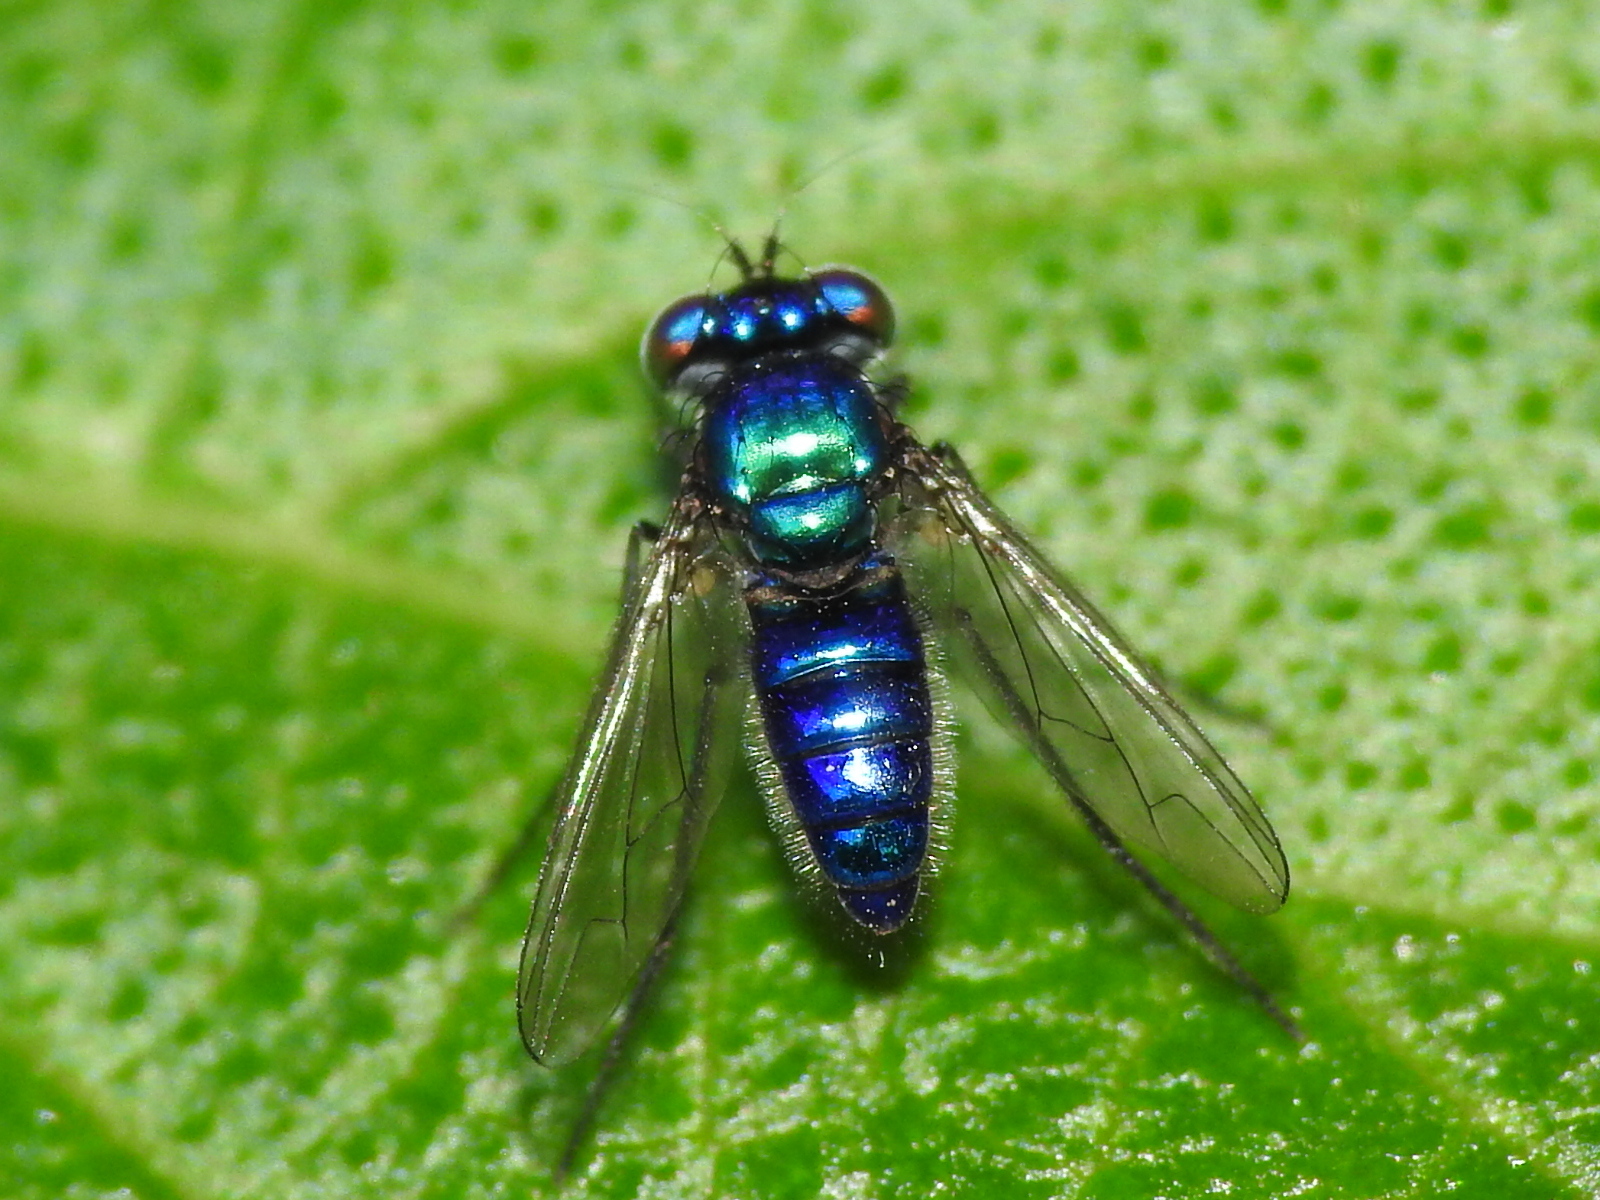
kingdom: Animalia
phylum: Arthropoda
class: Insecta
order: Diptera
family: Dolichopodidae
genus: Condylostylus
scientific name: Condylostylus mundus
